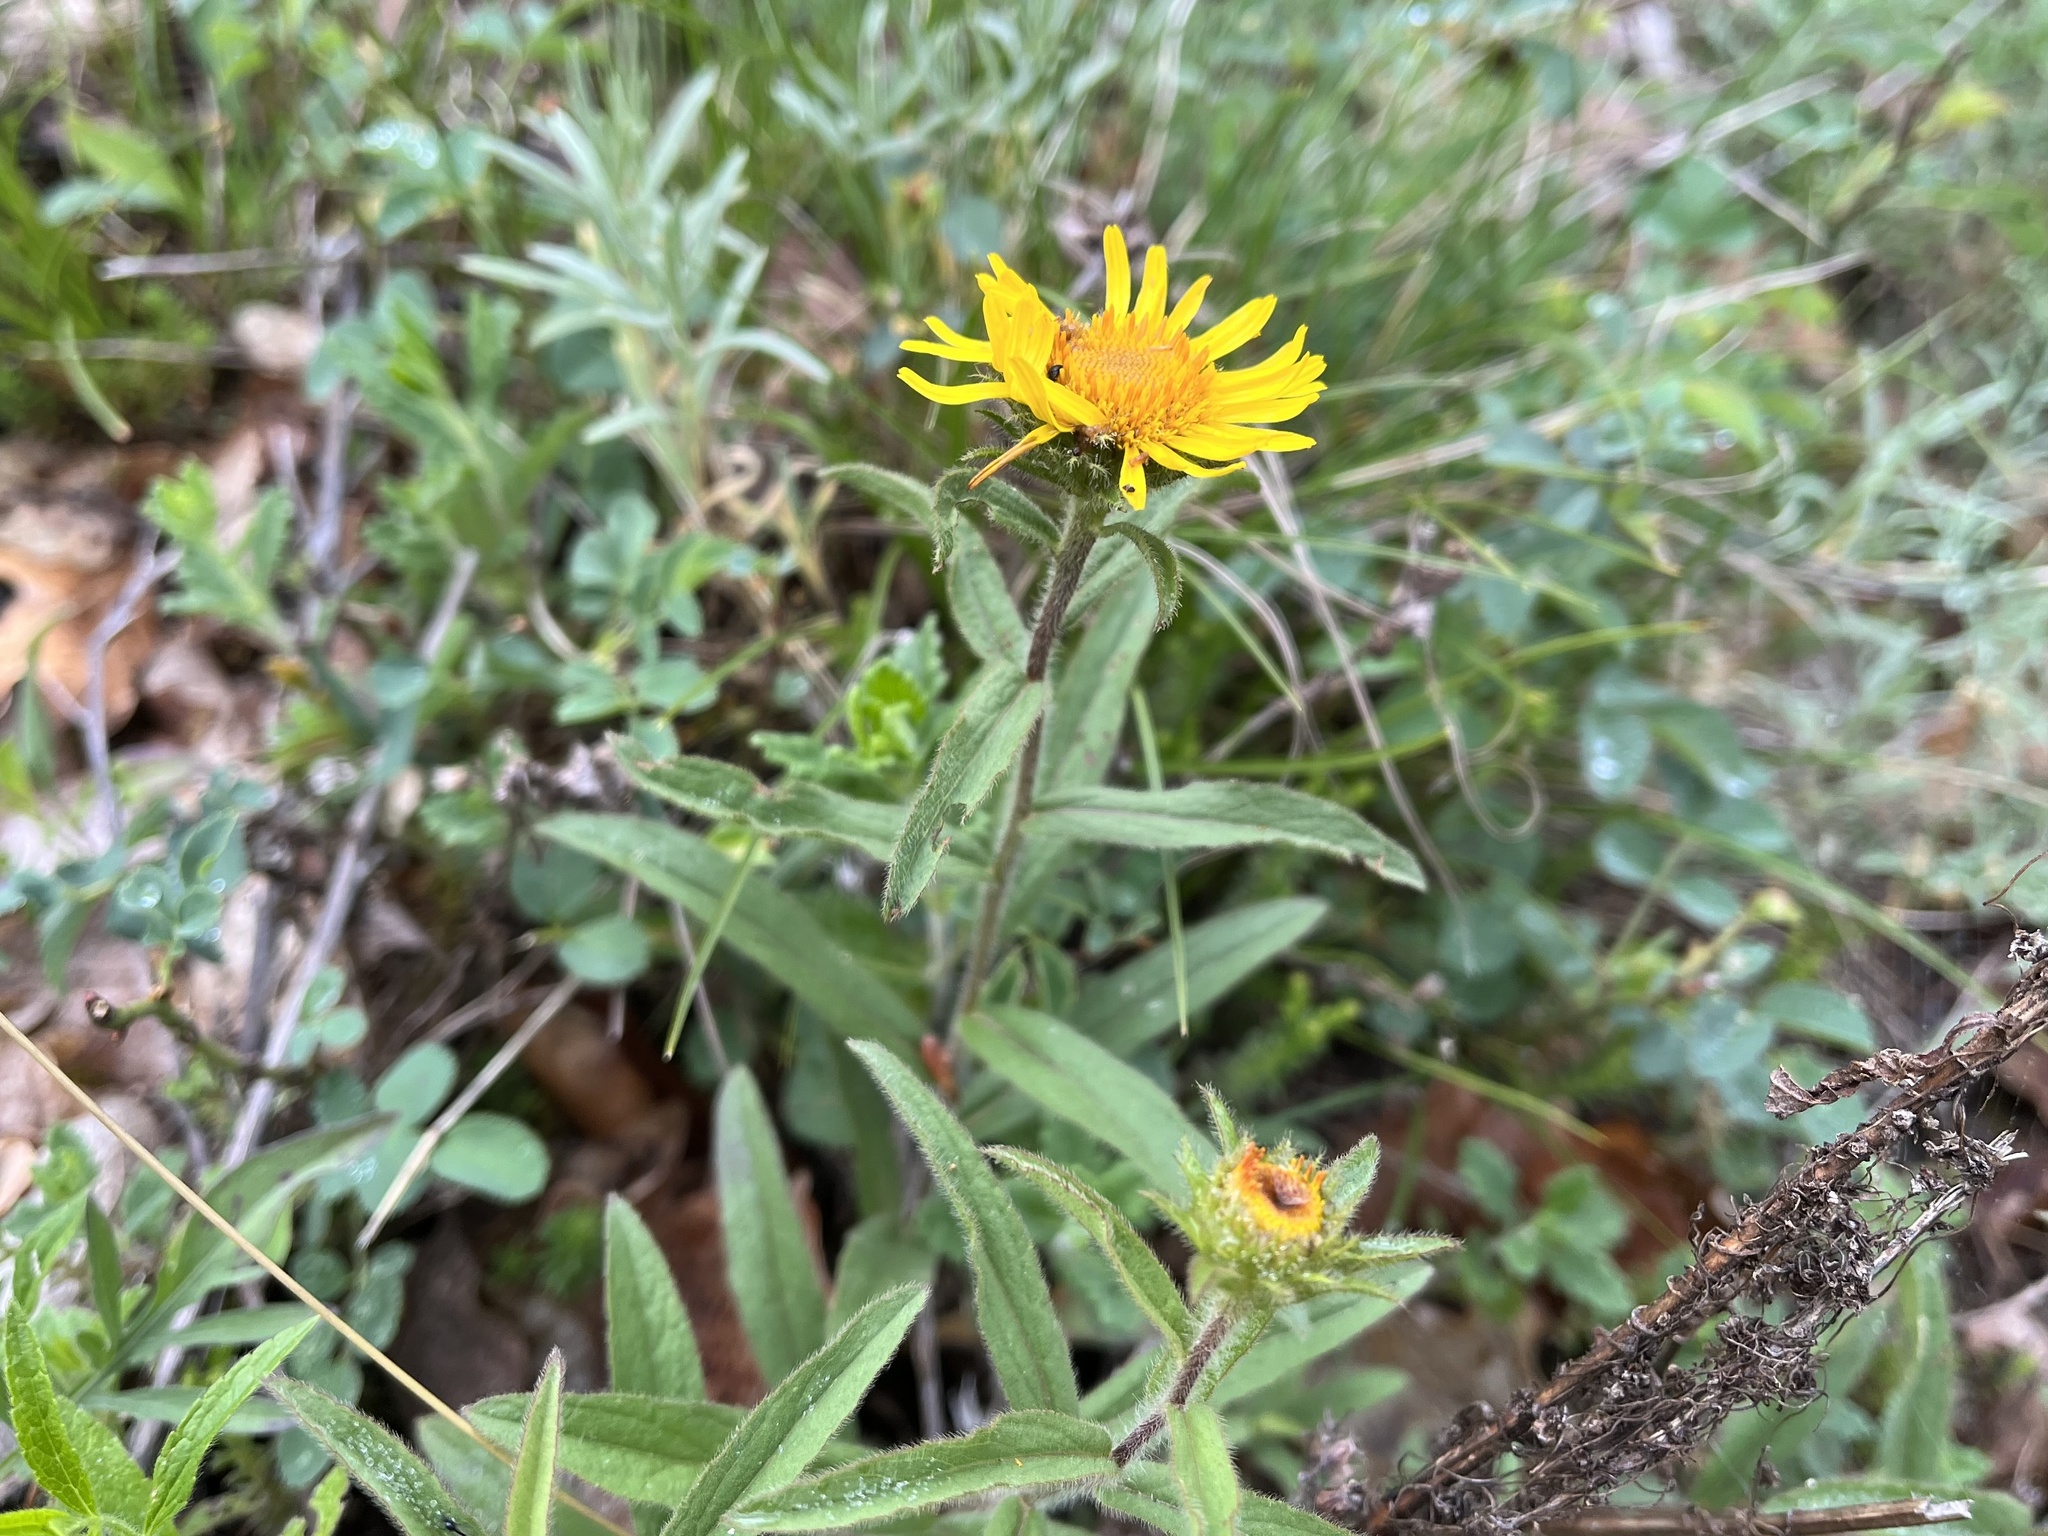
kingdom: Plantae
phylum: Tracheophyta
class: Magnoliopsida
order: Asterales
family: Asteraceae
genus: Pentanema
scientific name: Pentanema hirtum
